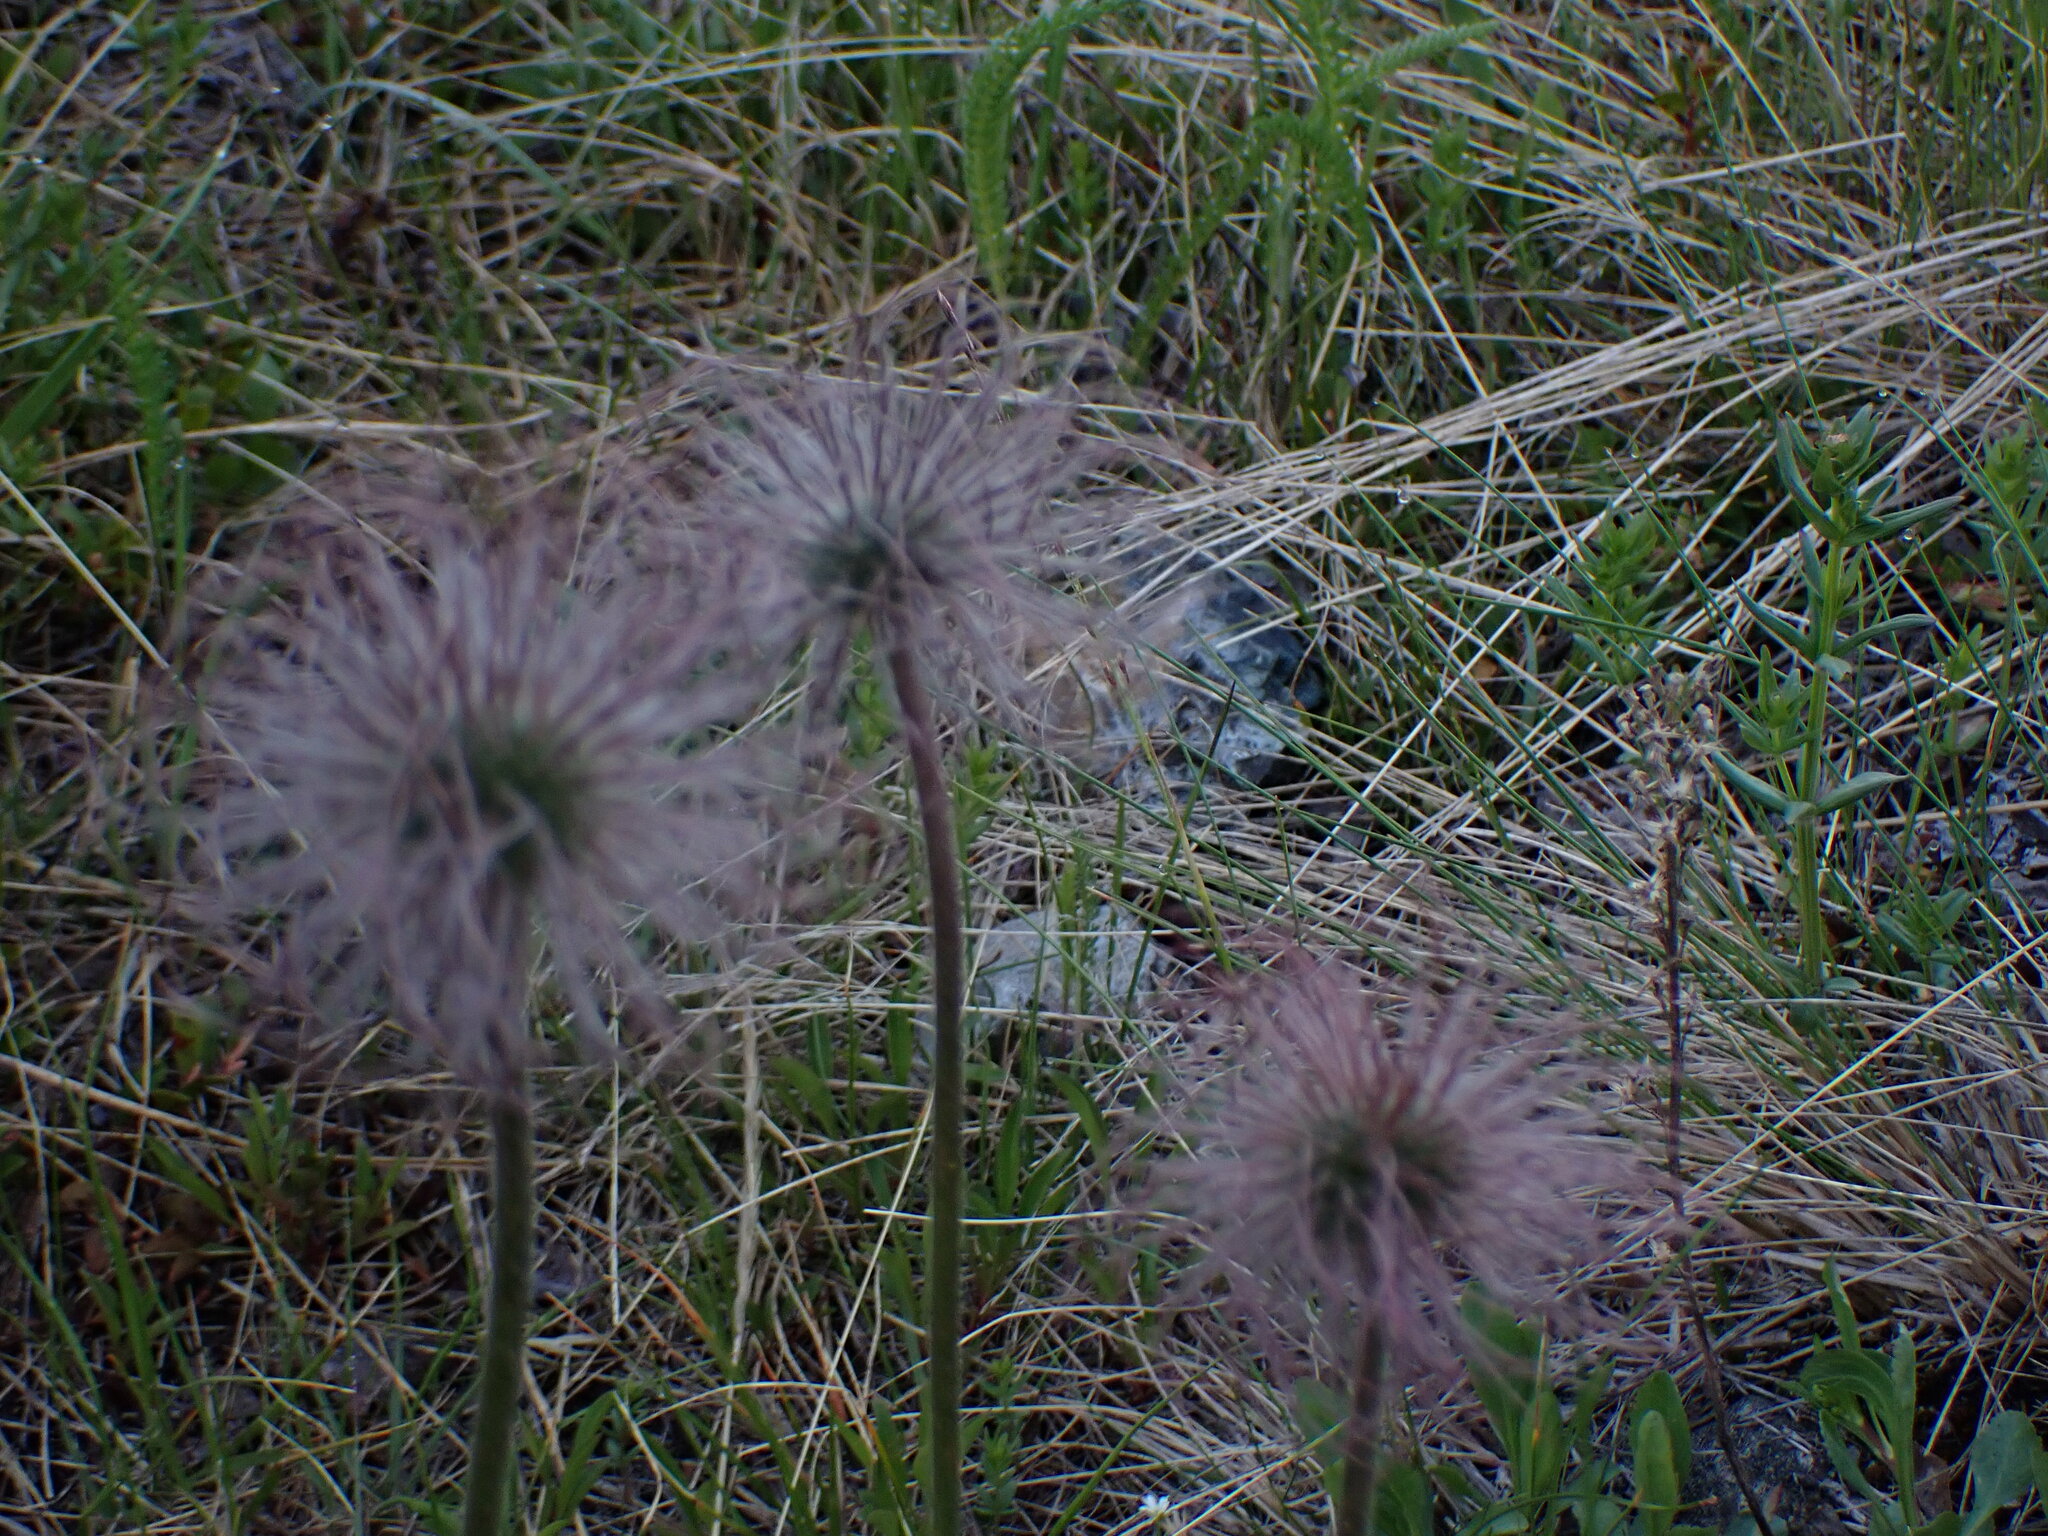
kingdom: Plantae
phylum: Tracheophyta
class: Magnoliopsida
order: Ranunculales
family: Ranunculaceae
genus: Pulsatilla
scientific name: Pulsatilla nuttalliana
